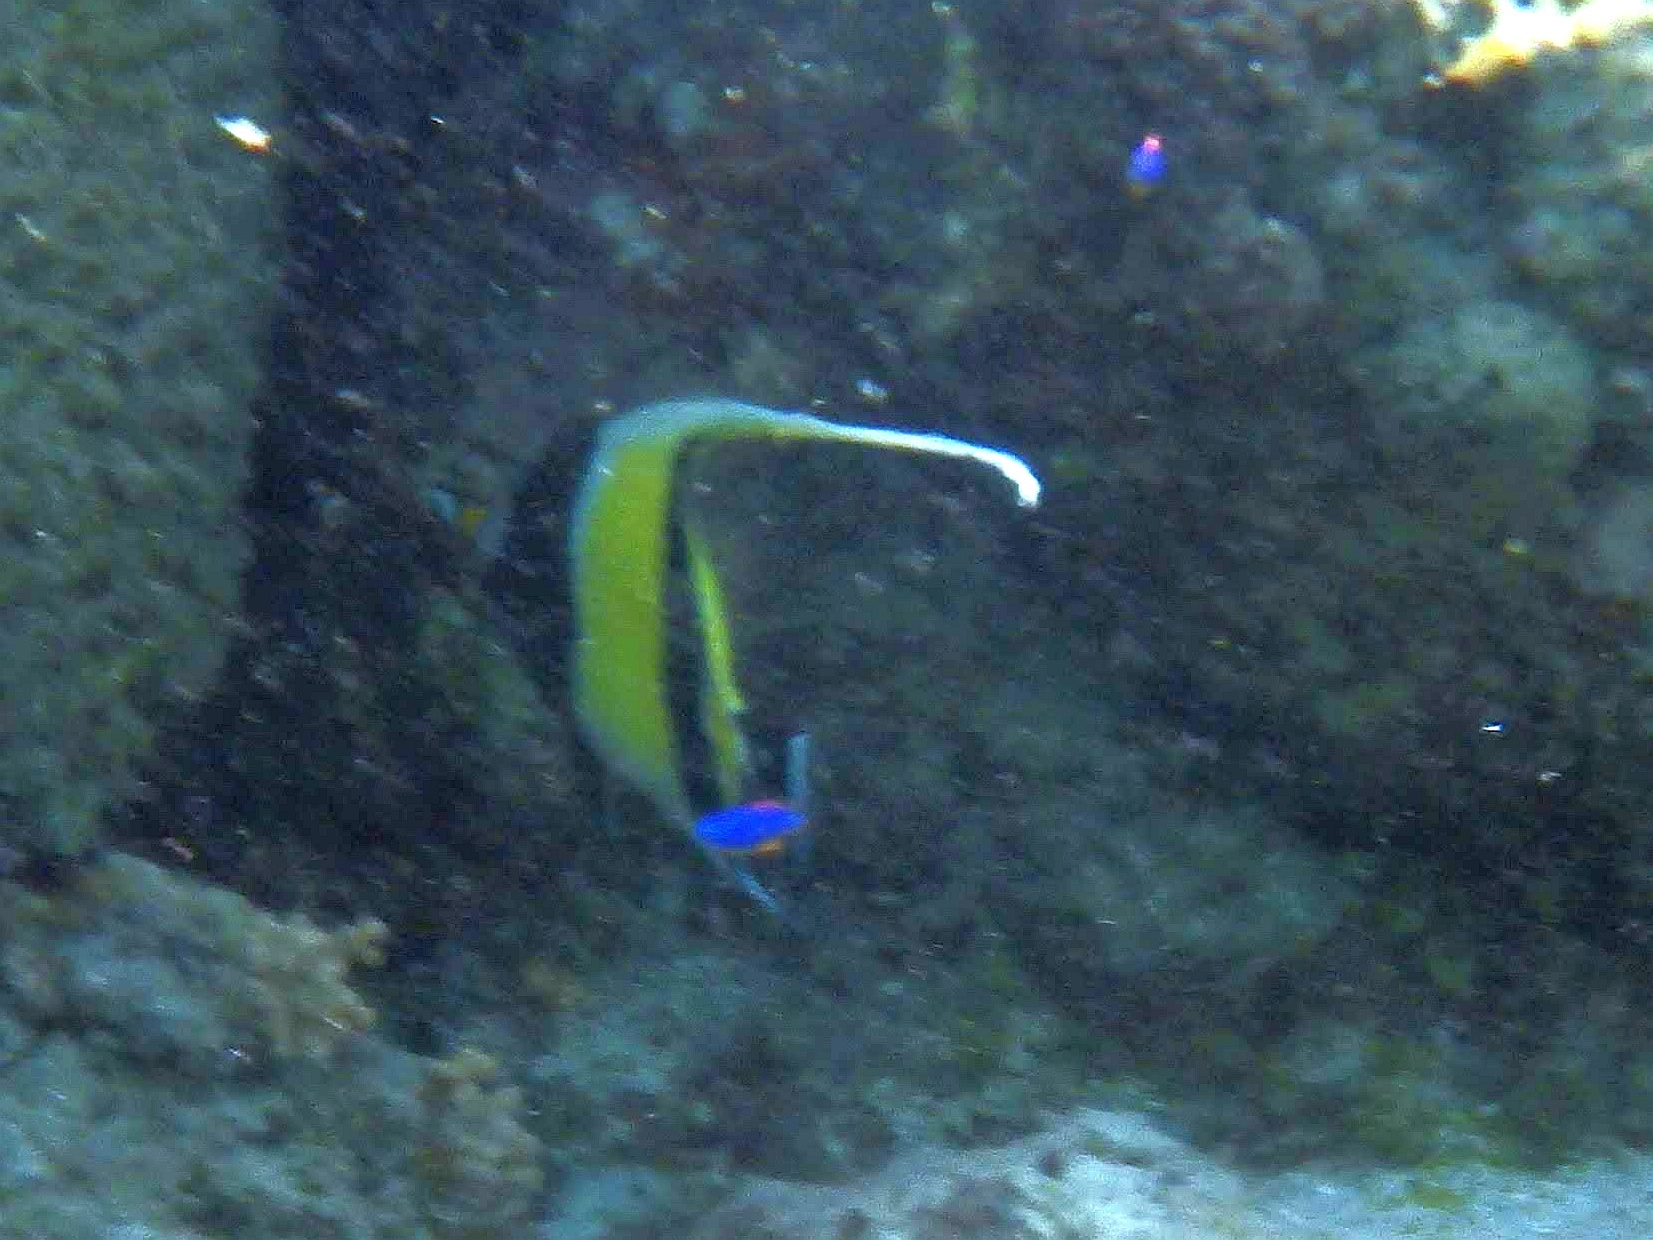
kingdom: Animalia
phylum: Chordata
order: Perciformes
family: Zanclidae
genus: Zanclus
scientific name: Zanclus cornutus
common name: Moorish idol
